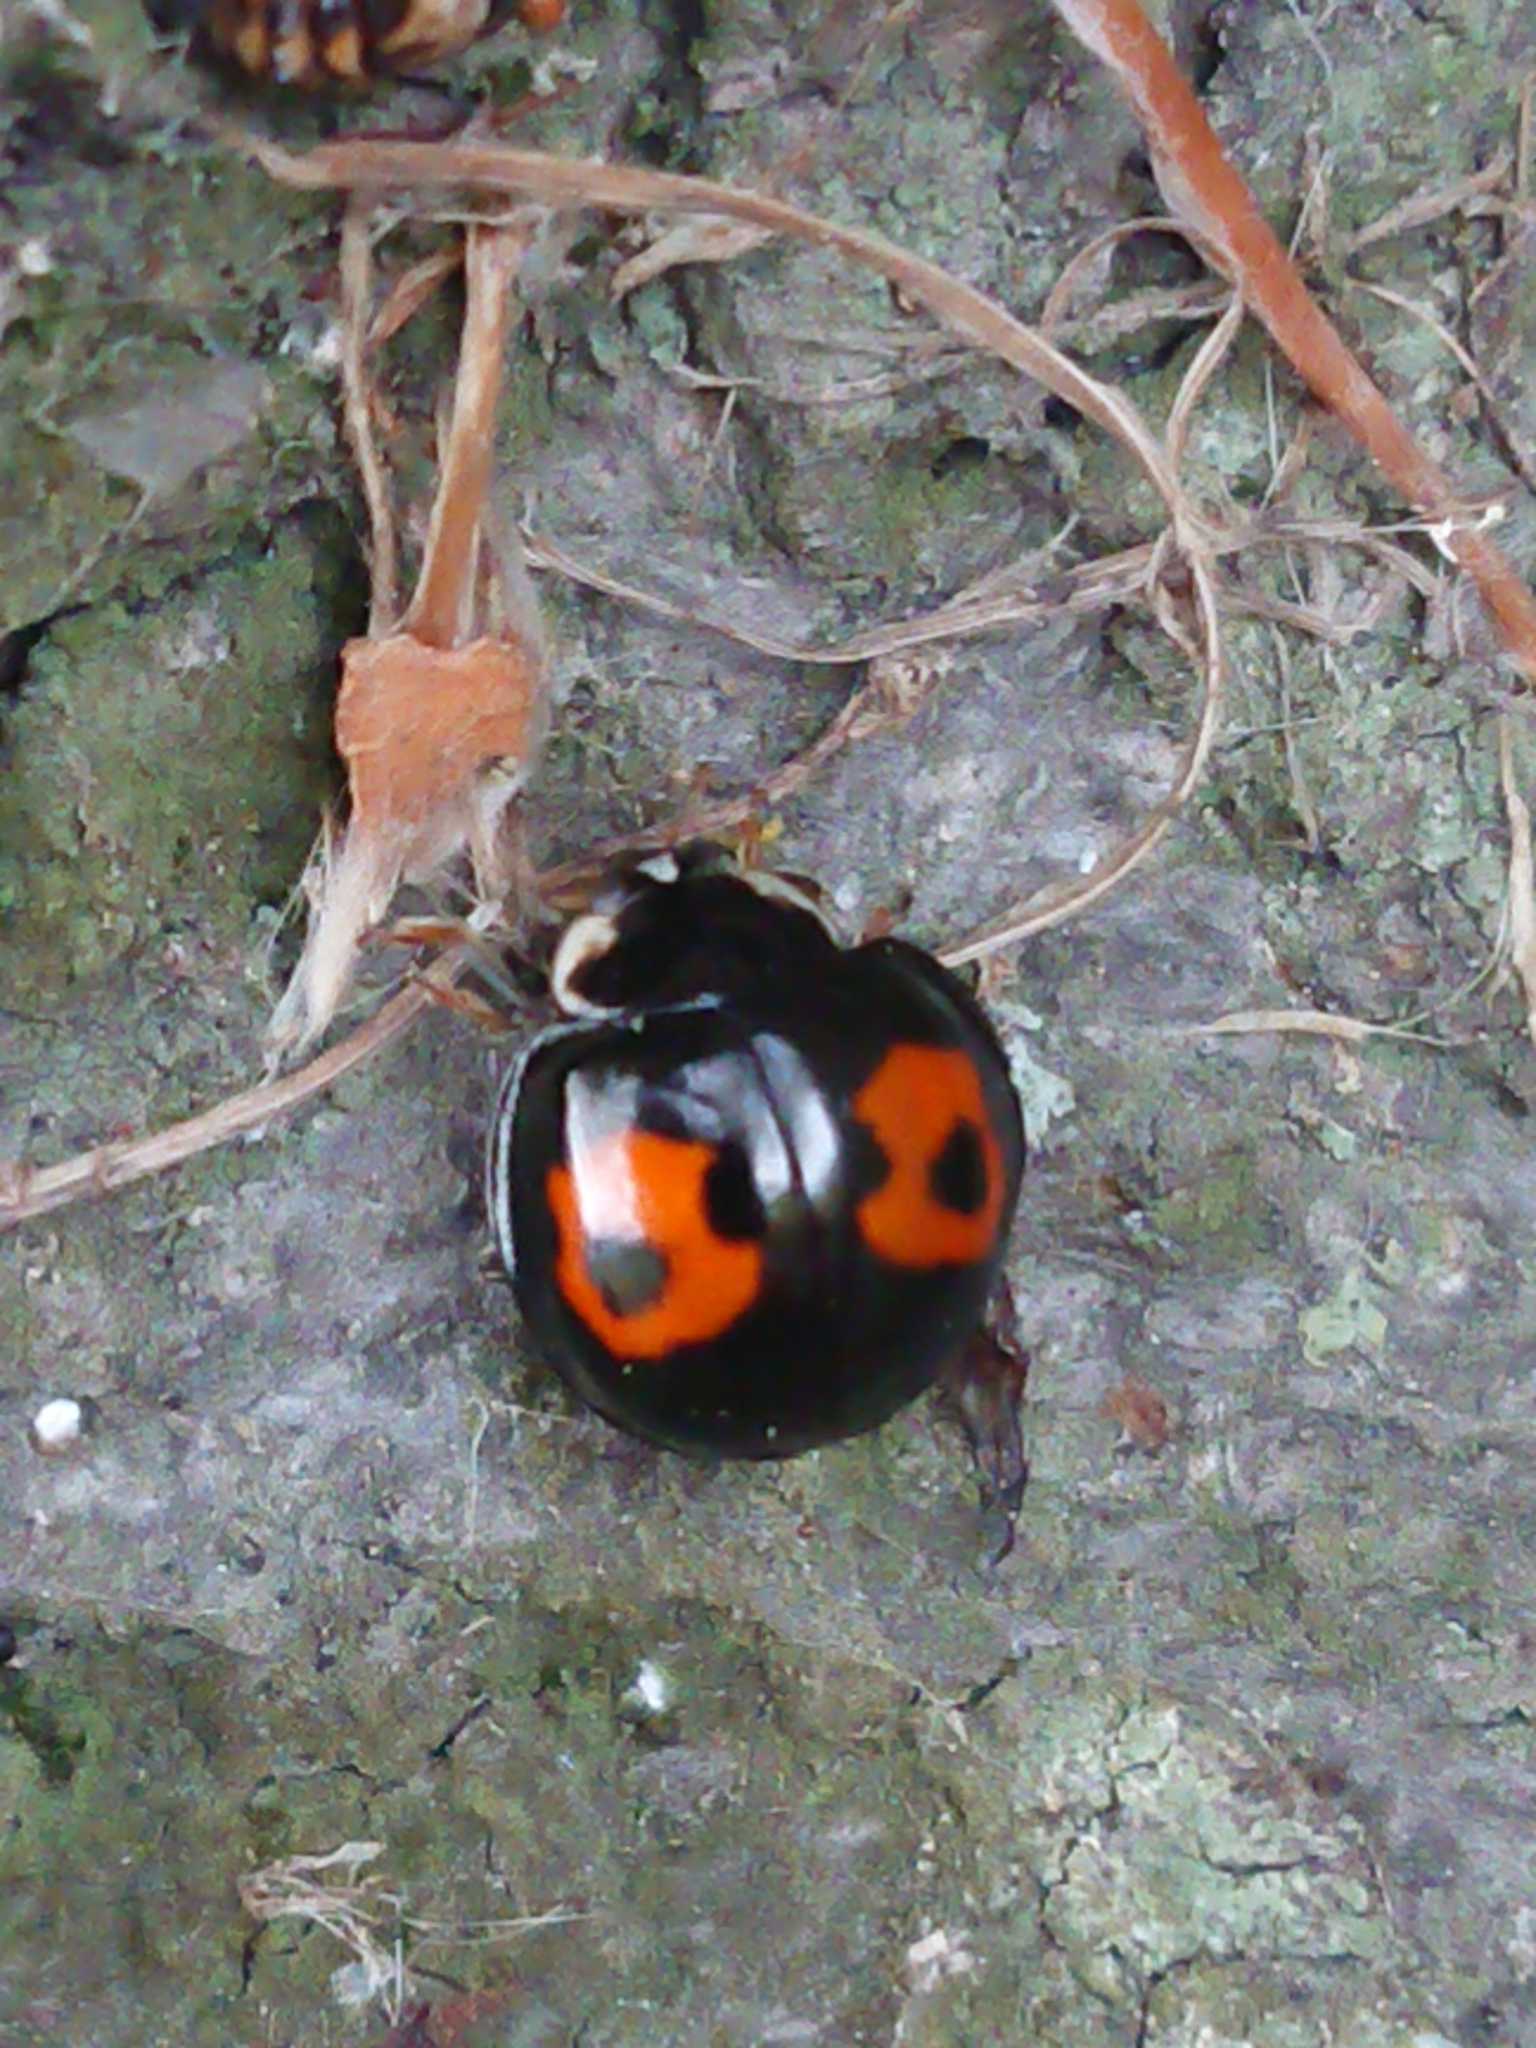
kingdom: Animalia
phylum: Arthropoda
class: Insecta
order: Coleoptera
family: Coccinellidae
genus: Harmonia
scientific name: Harmonia axyridis
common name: Harlequin ladybird
